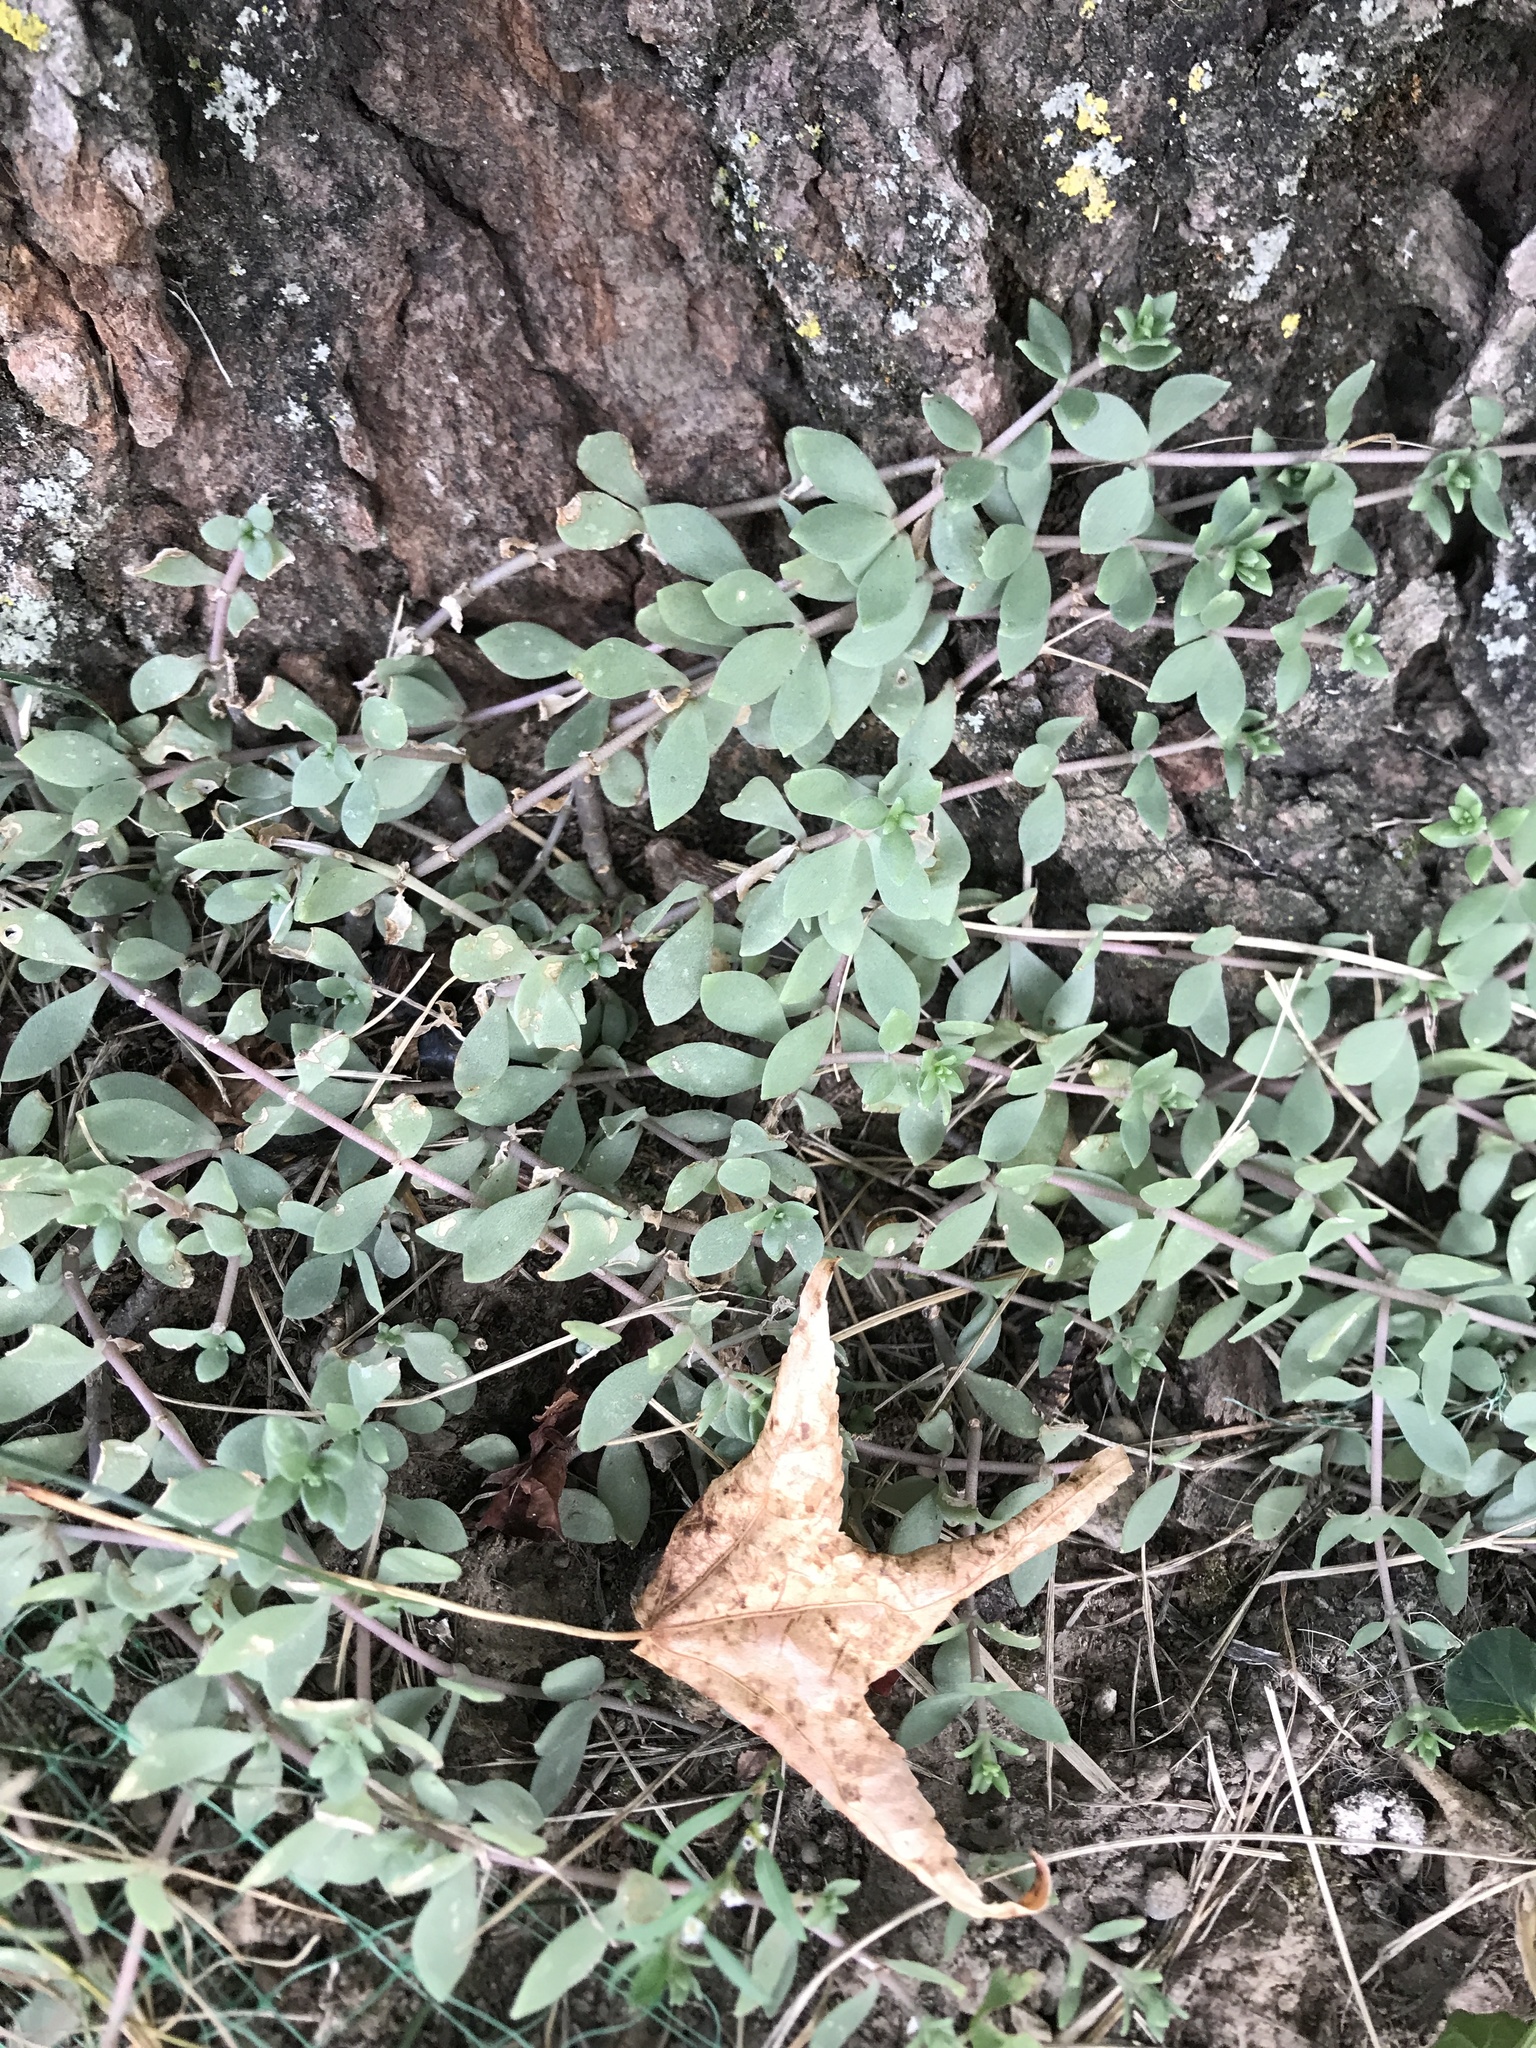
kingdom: Plantae
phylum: Tracheophyta
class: Magnoliopsida
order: Saxifragales
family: Crassulaceae
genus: Sedum
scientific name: Sedum sarmentosum
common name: Stringy stonecrop
